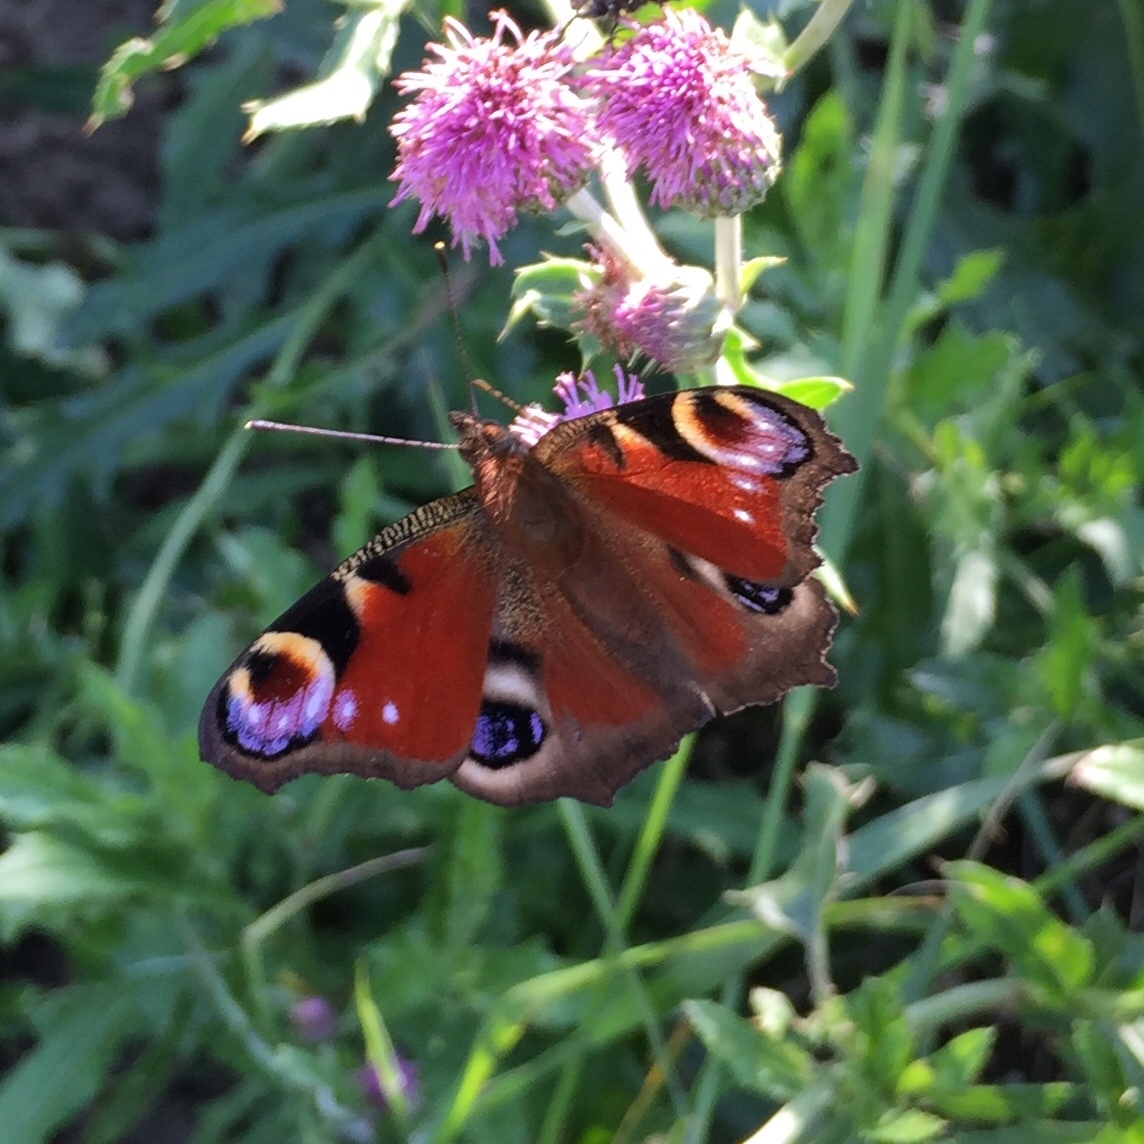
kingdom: Animalia
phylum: Arthropoda
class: Insecta
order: Lepidoptera
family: Nymphalidae
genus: Aglais
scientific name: Aglais io
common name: Peacock
